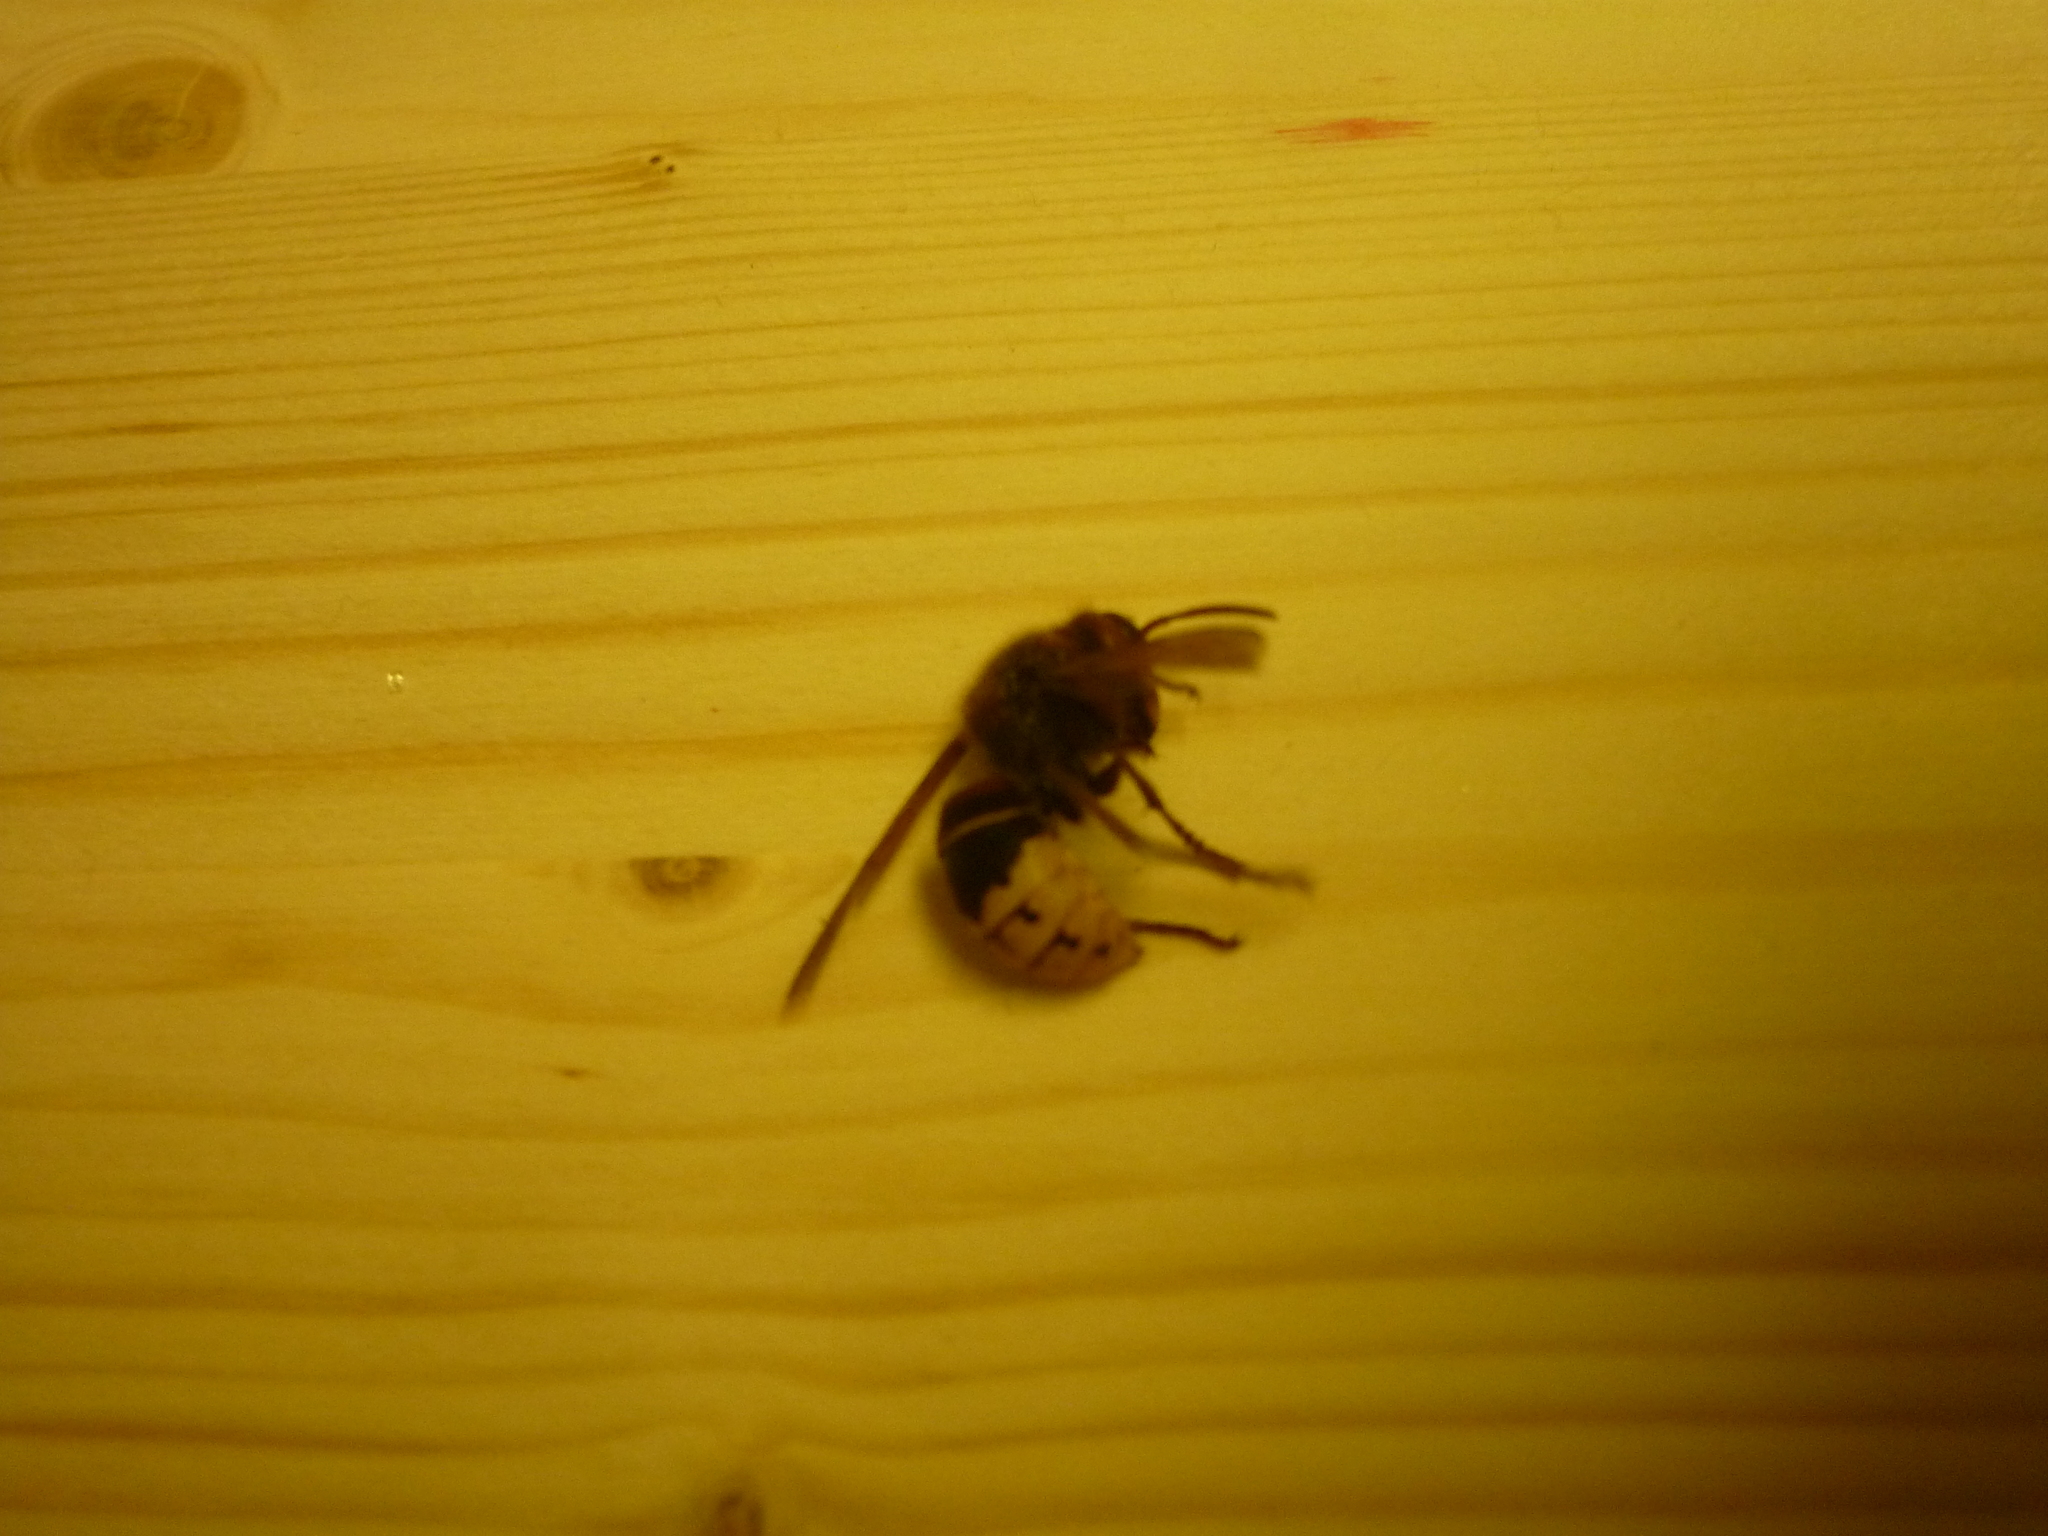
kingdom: Animalia
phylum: Arthropoda
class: Insecta
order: Hymenoptera
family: Vespidae
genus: Vespa
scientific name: Vespa crabro
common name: Hornet
